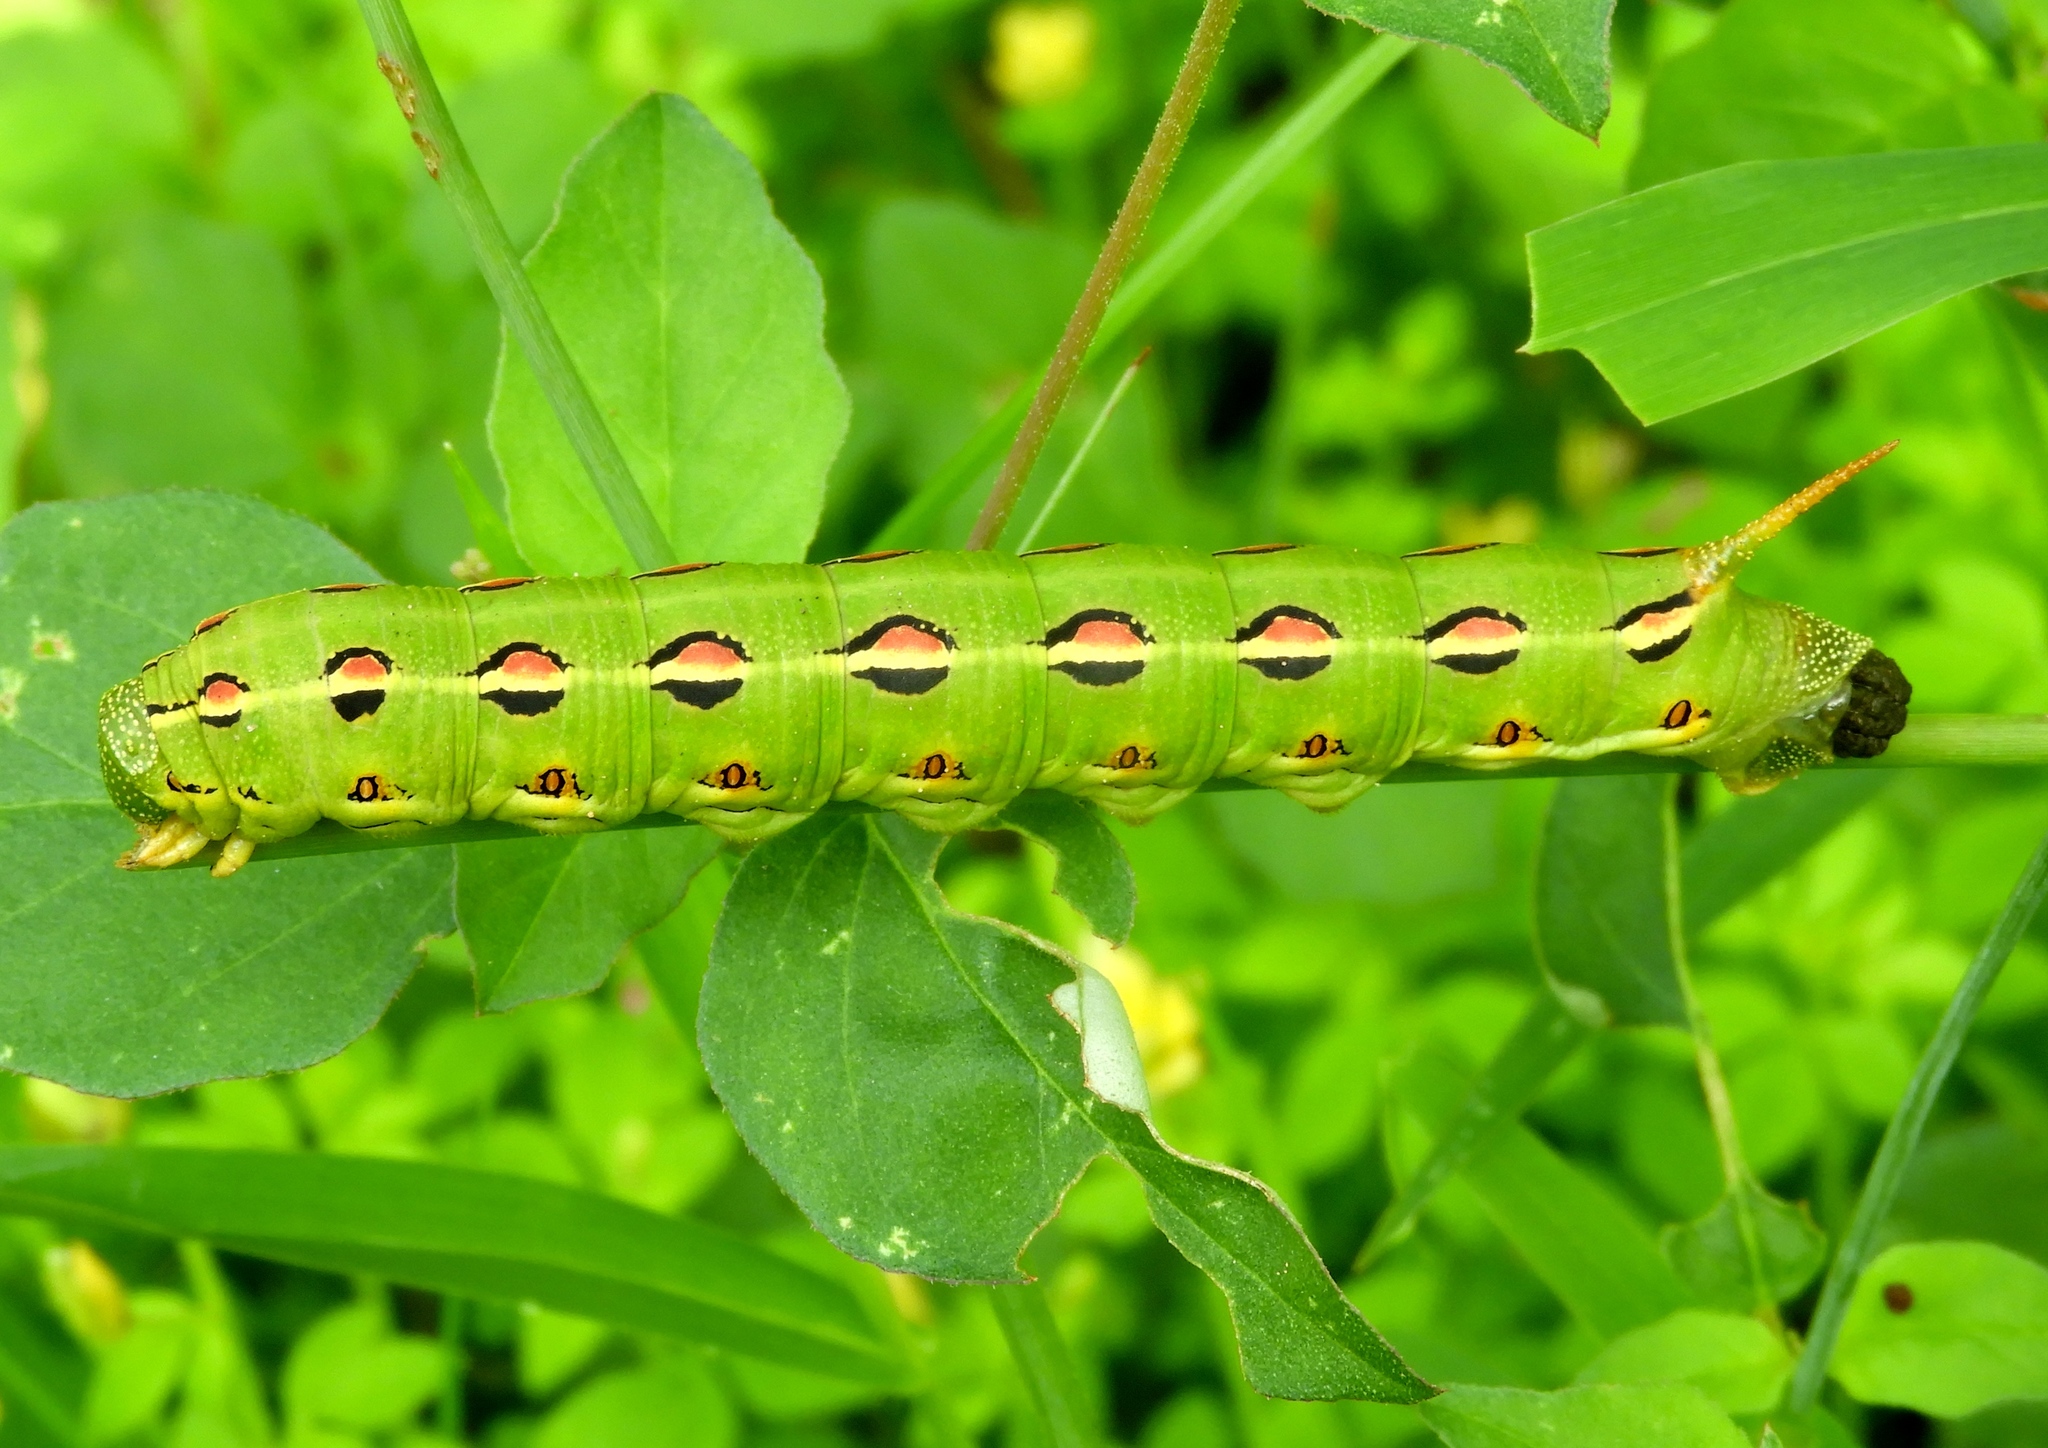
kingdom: Animalia
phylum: Arthropoda
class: Insecta
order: Lepidoptera
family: Sphingidae
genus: Hyles
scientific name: Hyles lineata
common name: White-lined sphinx
